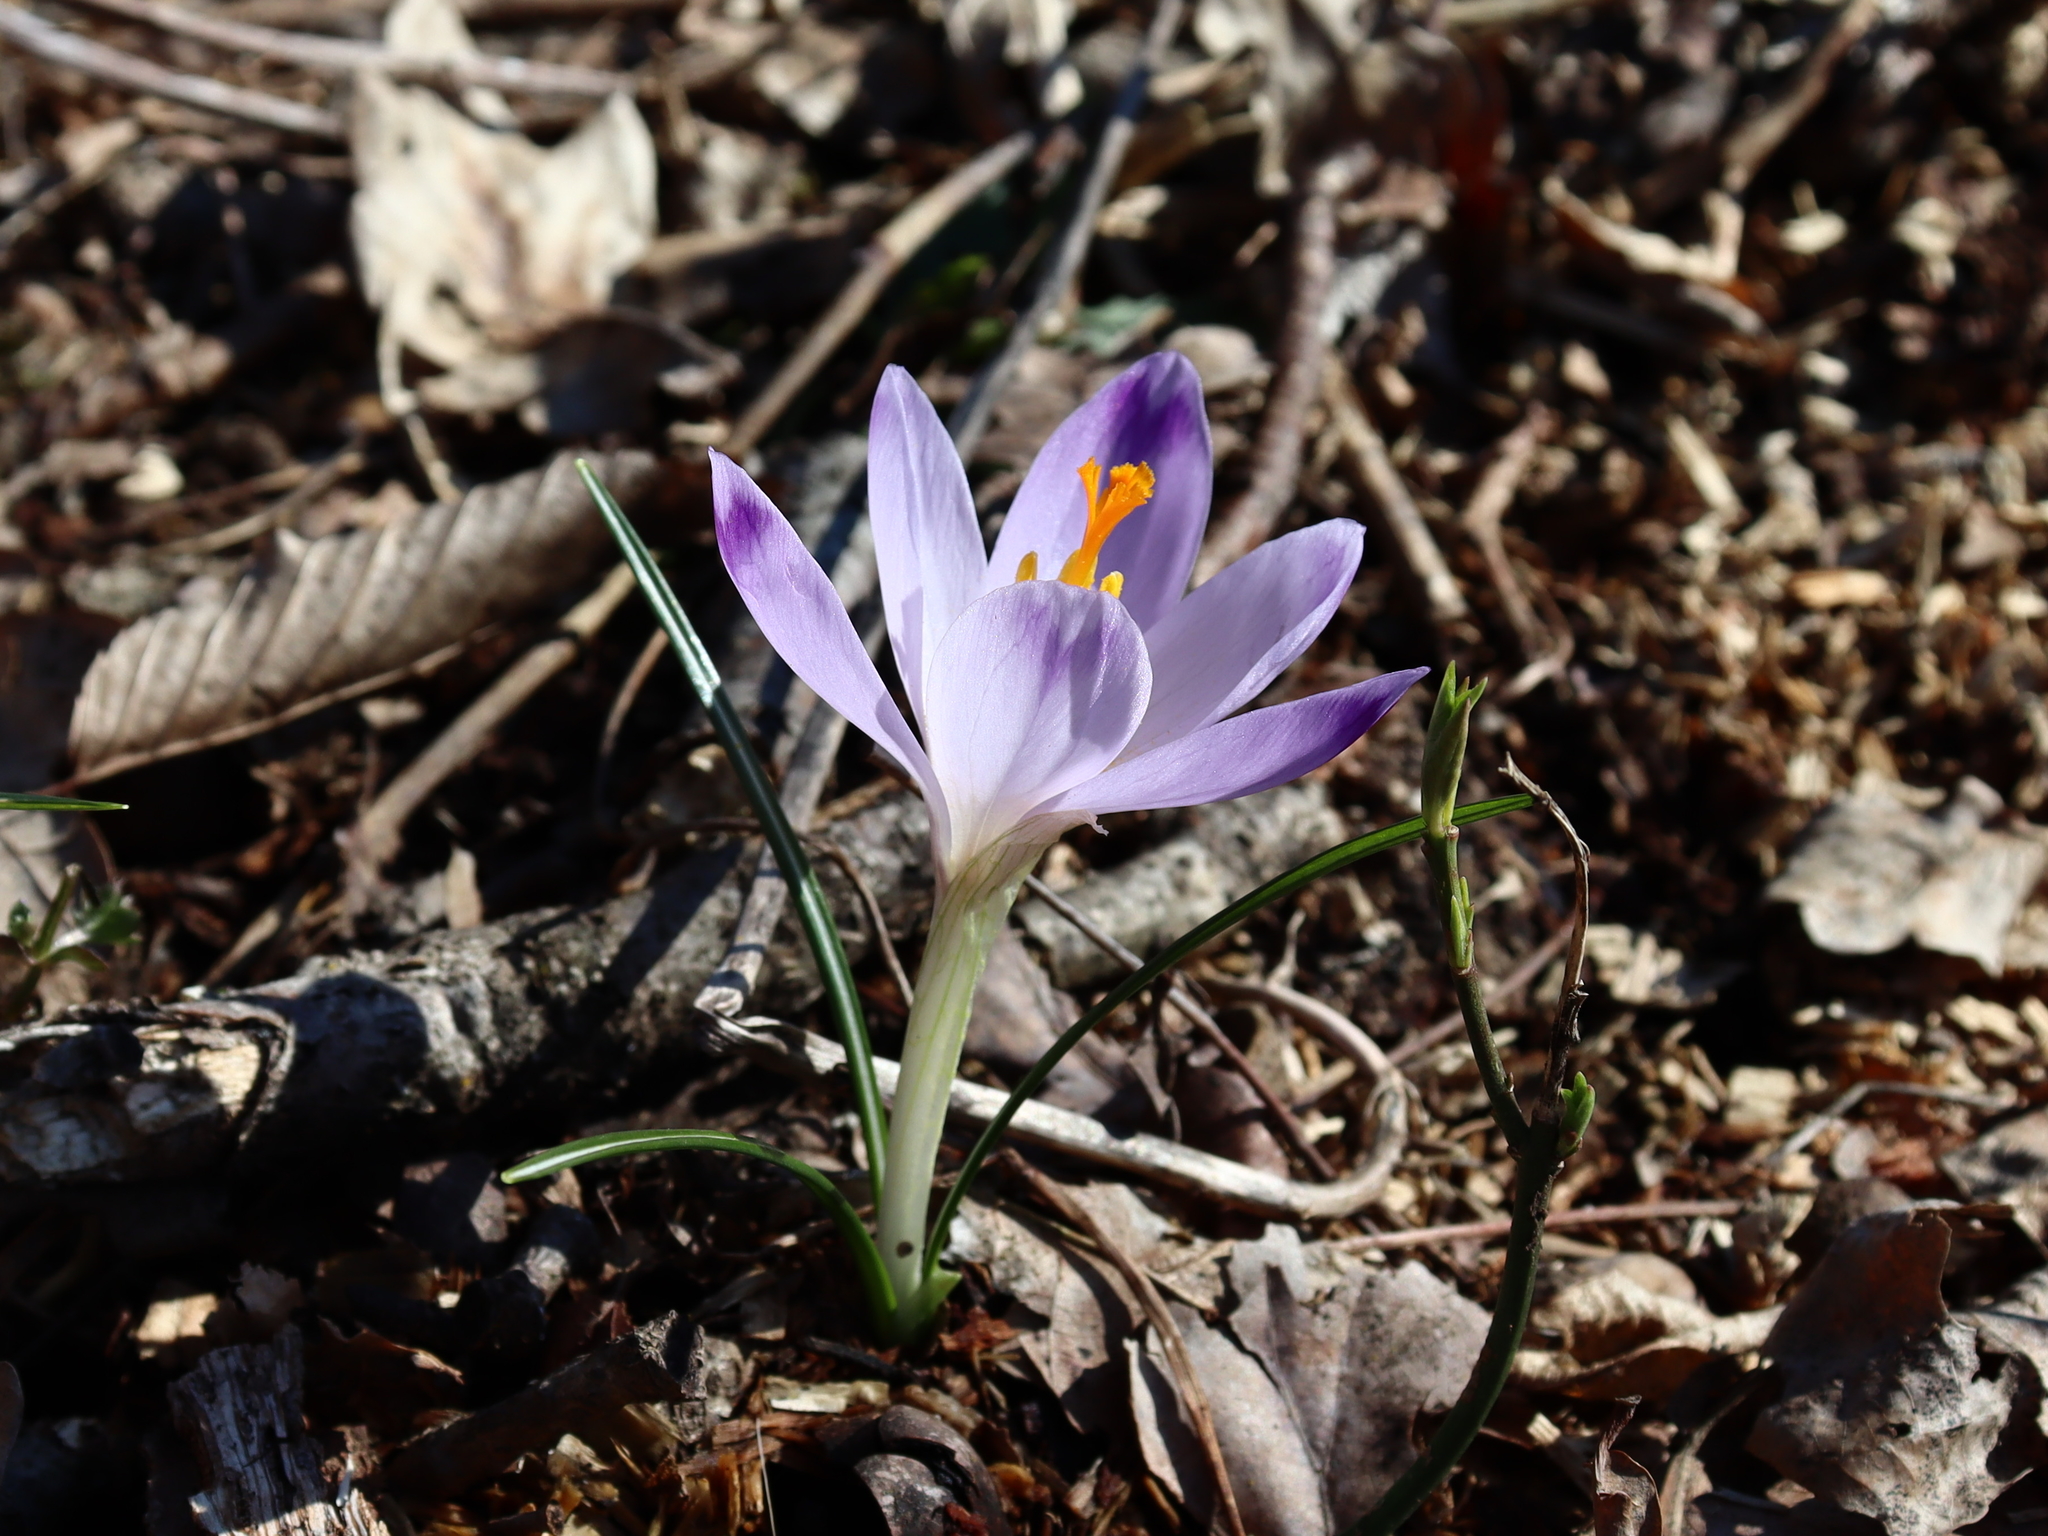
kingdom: Plantae
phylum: Tracheophyta
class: Liliopsida
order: Asparagales
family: Iridaceae
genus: Crocus
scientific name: Crocus heuffelianus
